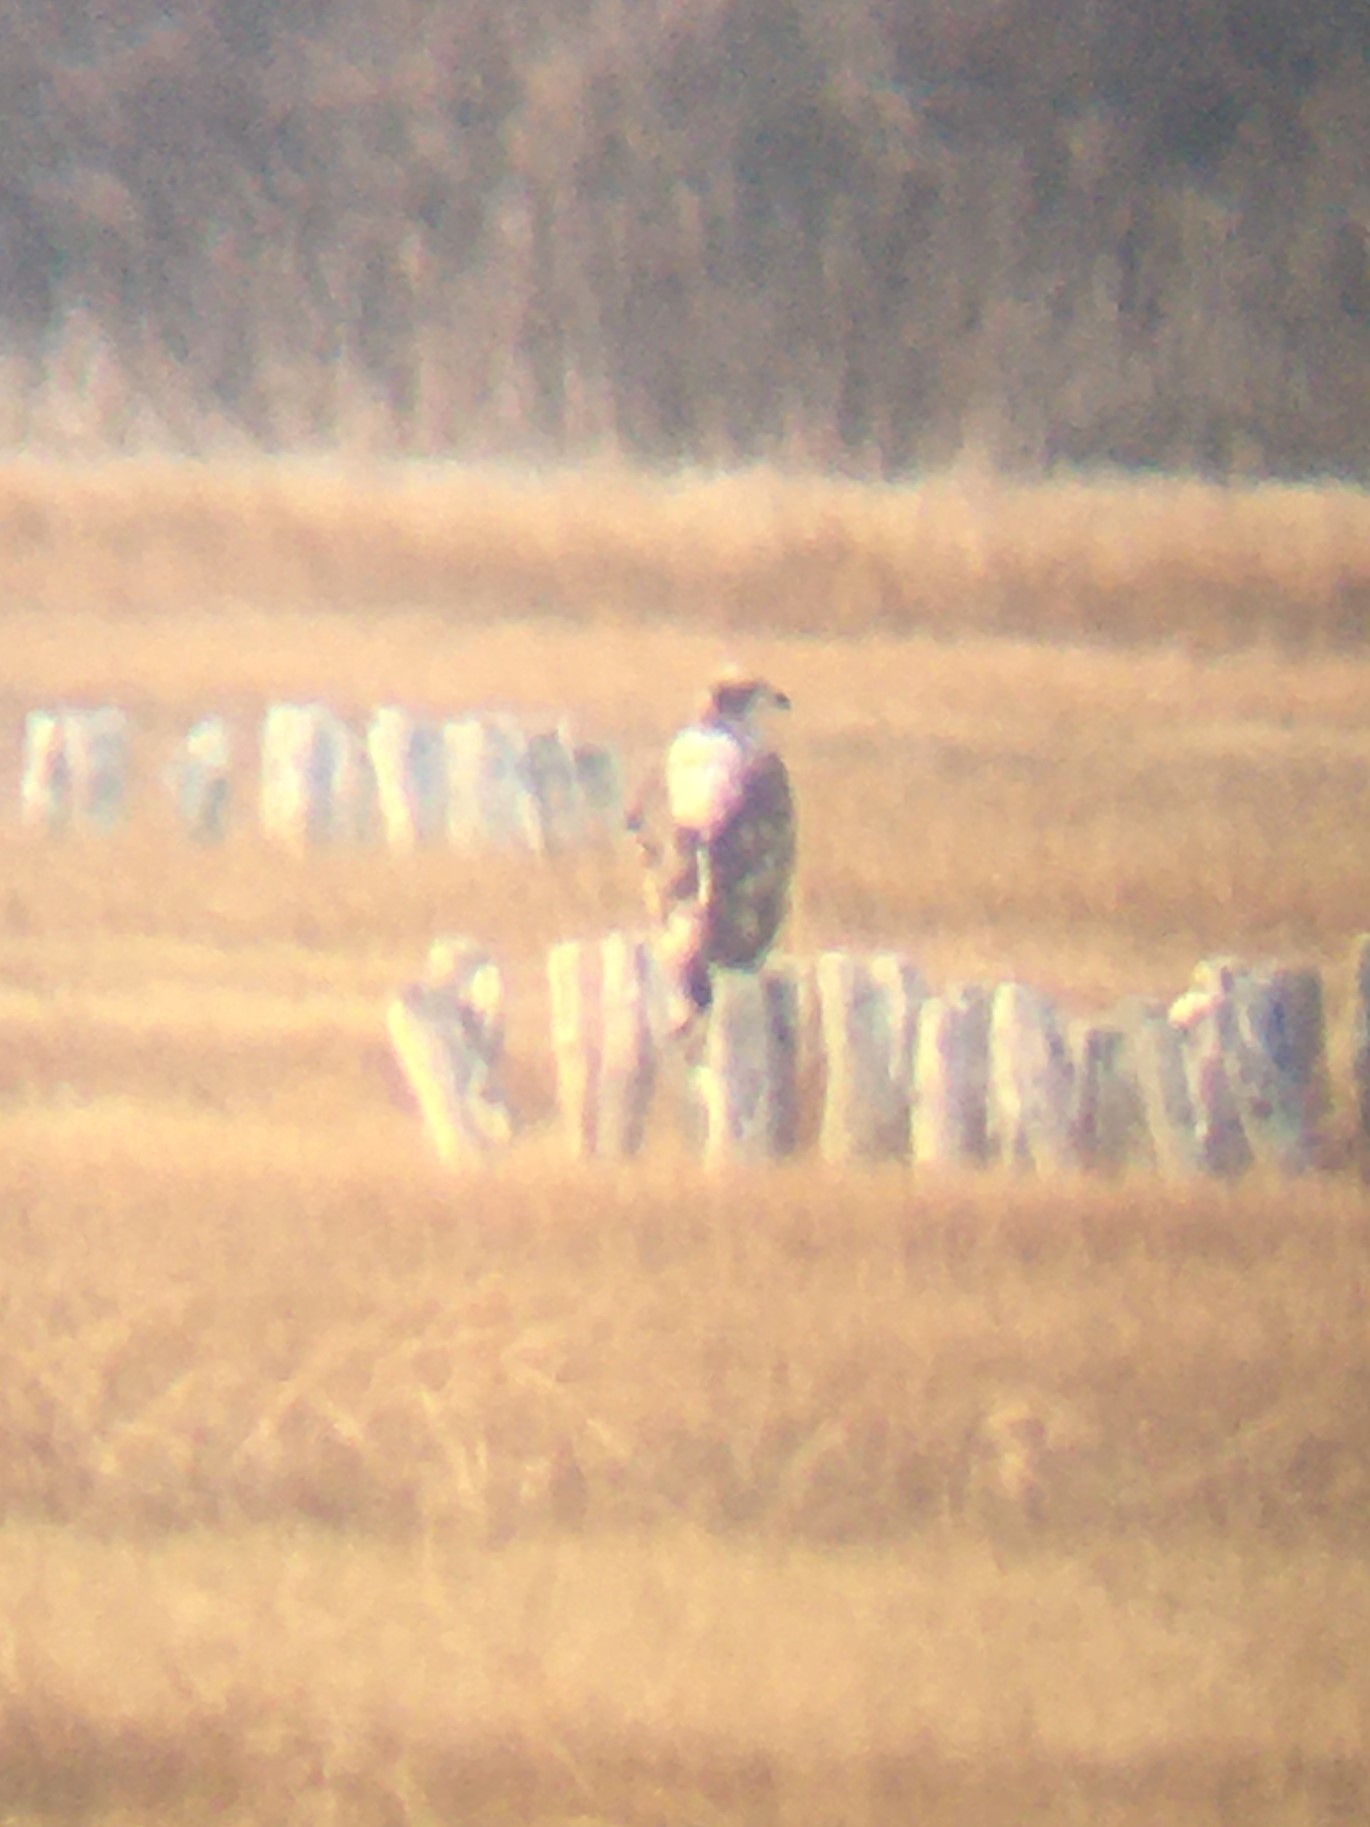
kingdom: Animalia
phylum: Chordata
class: Aves
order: Accipitriformes
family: Accipitridae
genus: Haliaeetus
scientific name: Haliaeetus leucocephalus
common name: Bald eagle
